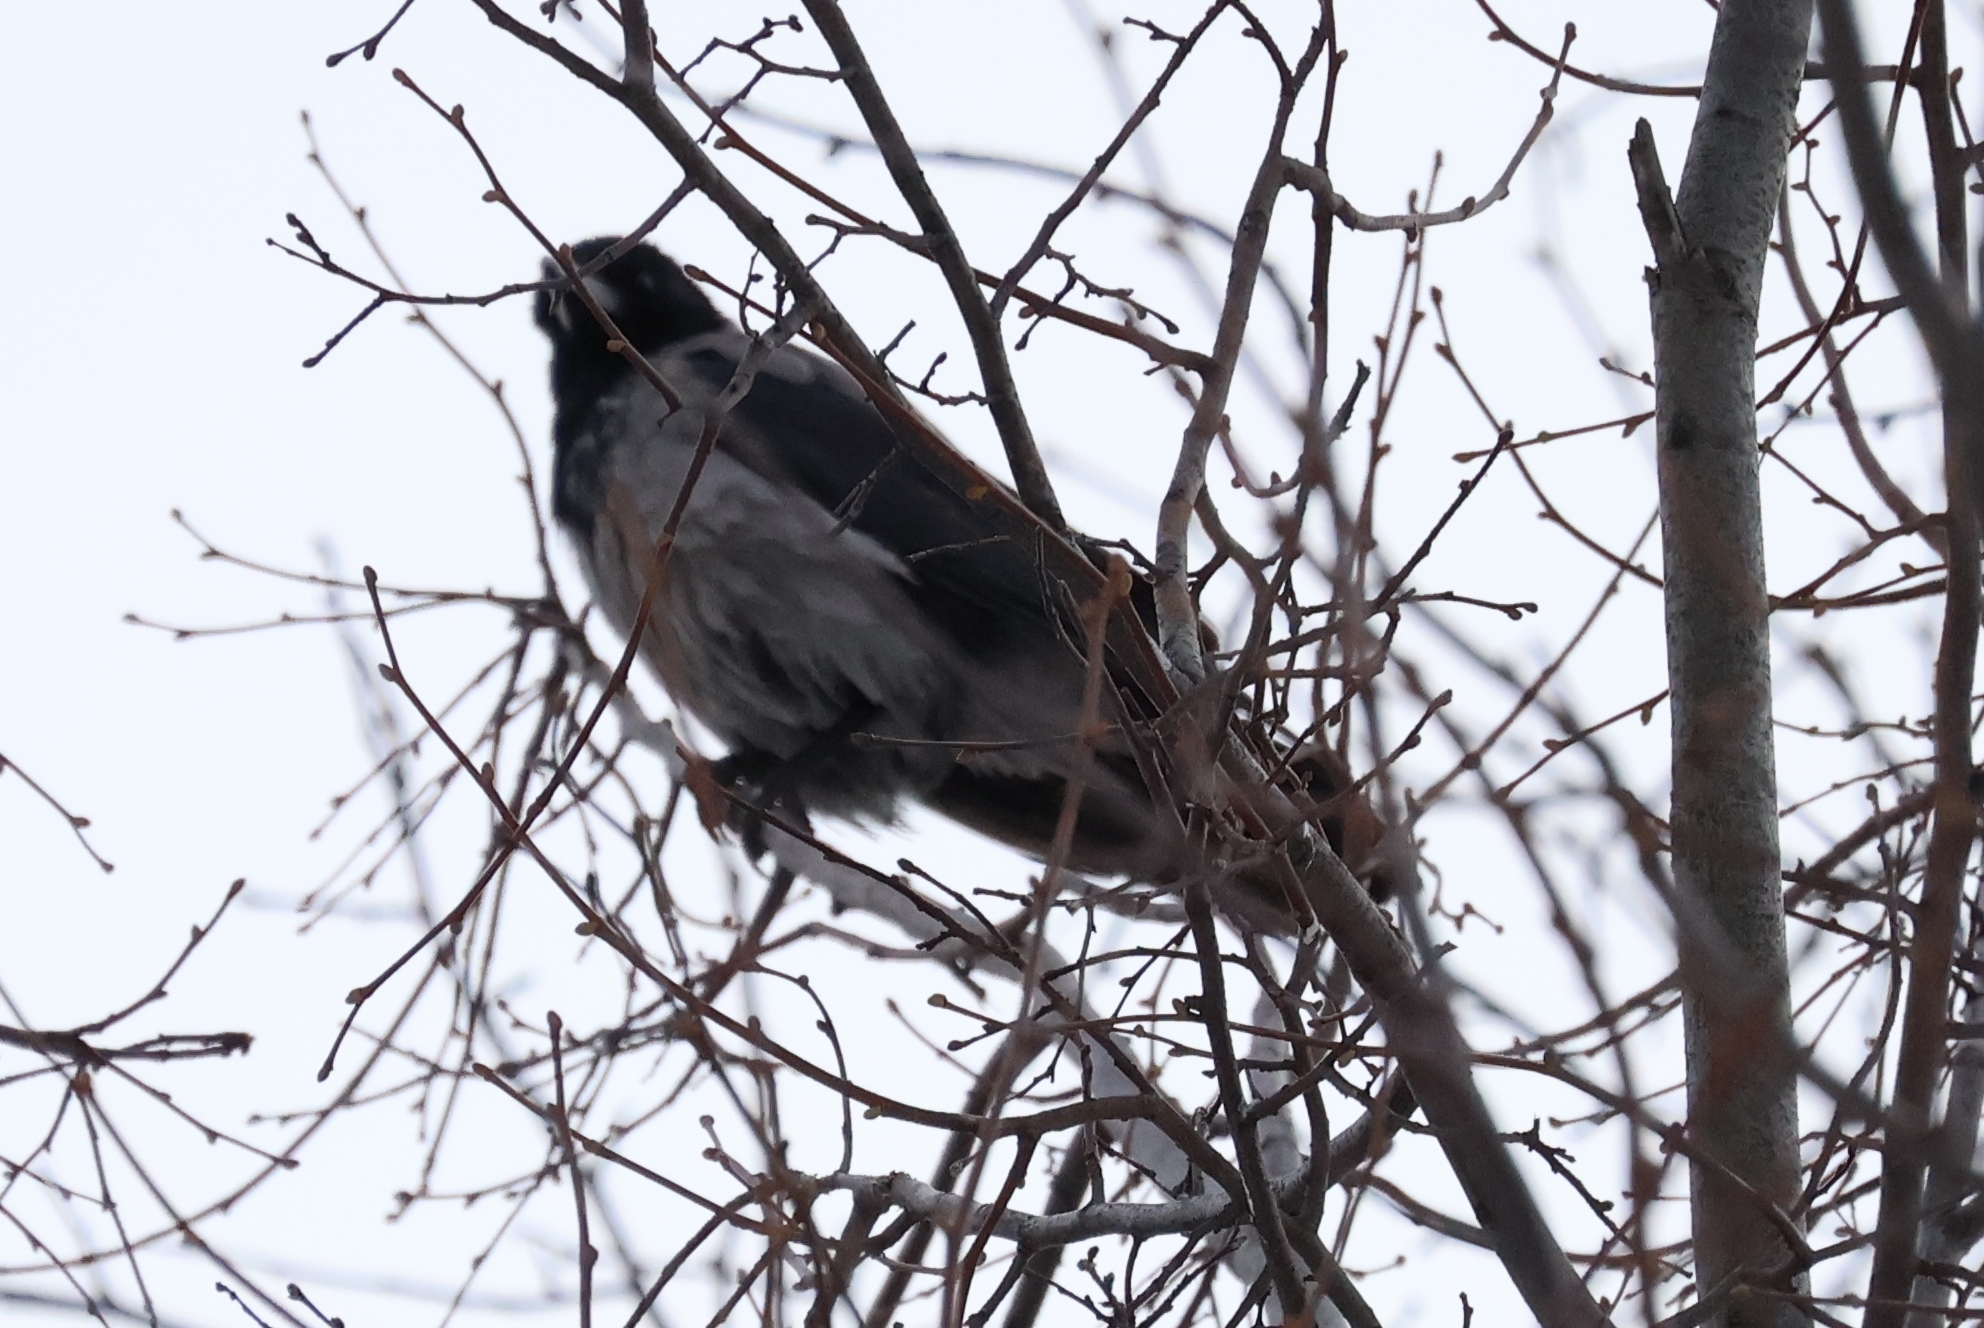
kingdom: Animalia
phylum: Chordata
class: Aves
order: Passeriformes
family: Corvidae
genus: Corvus
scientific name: Corvus cornix
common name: Hooded crow
